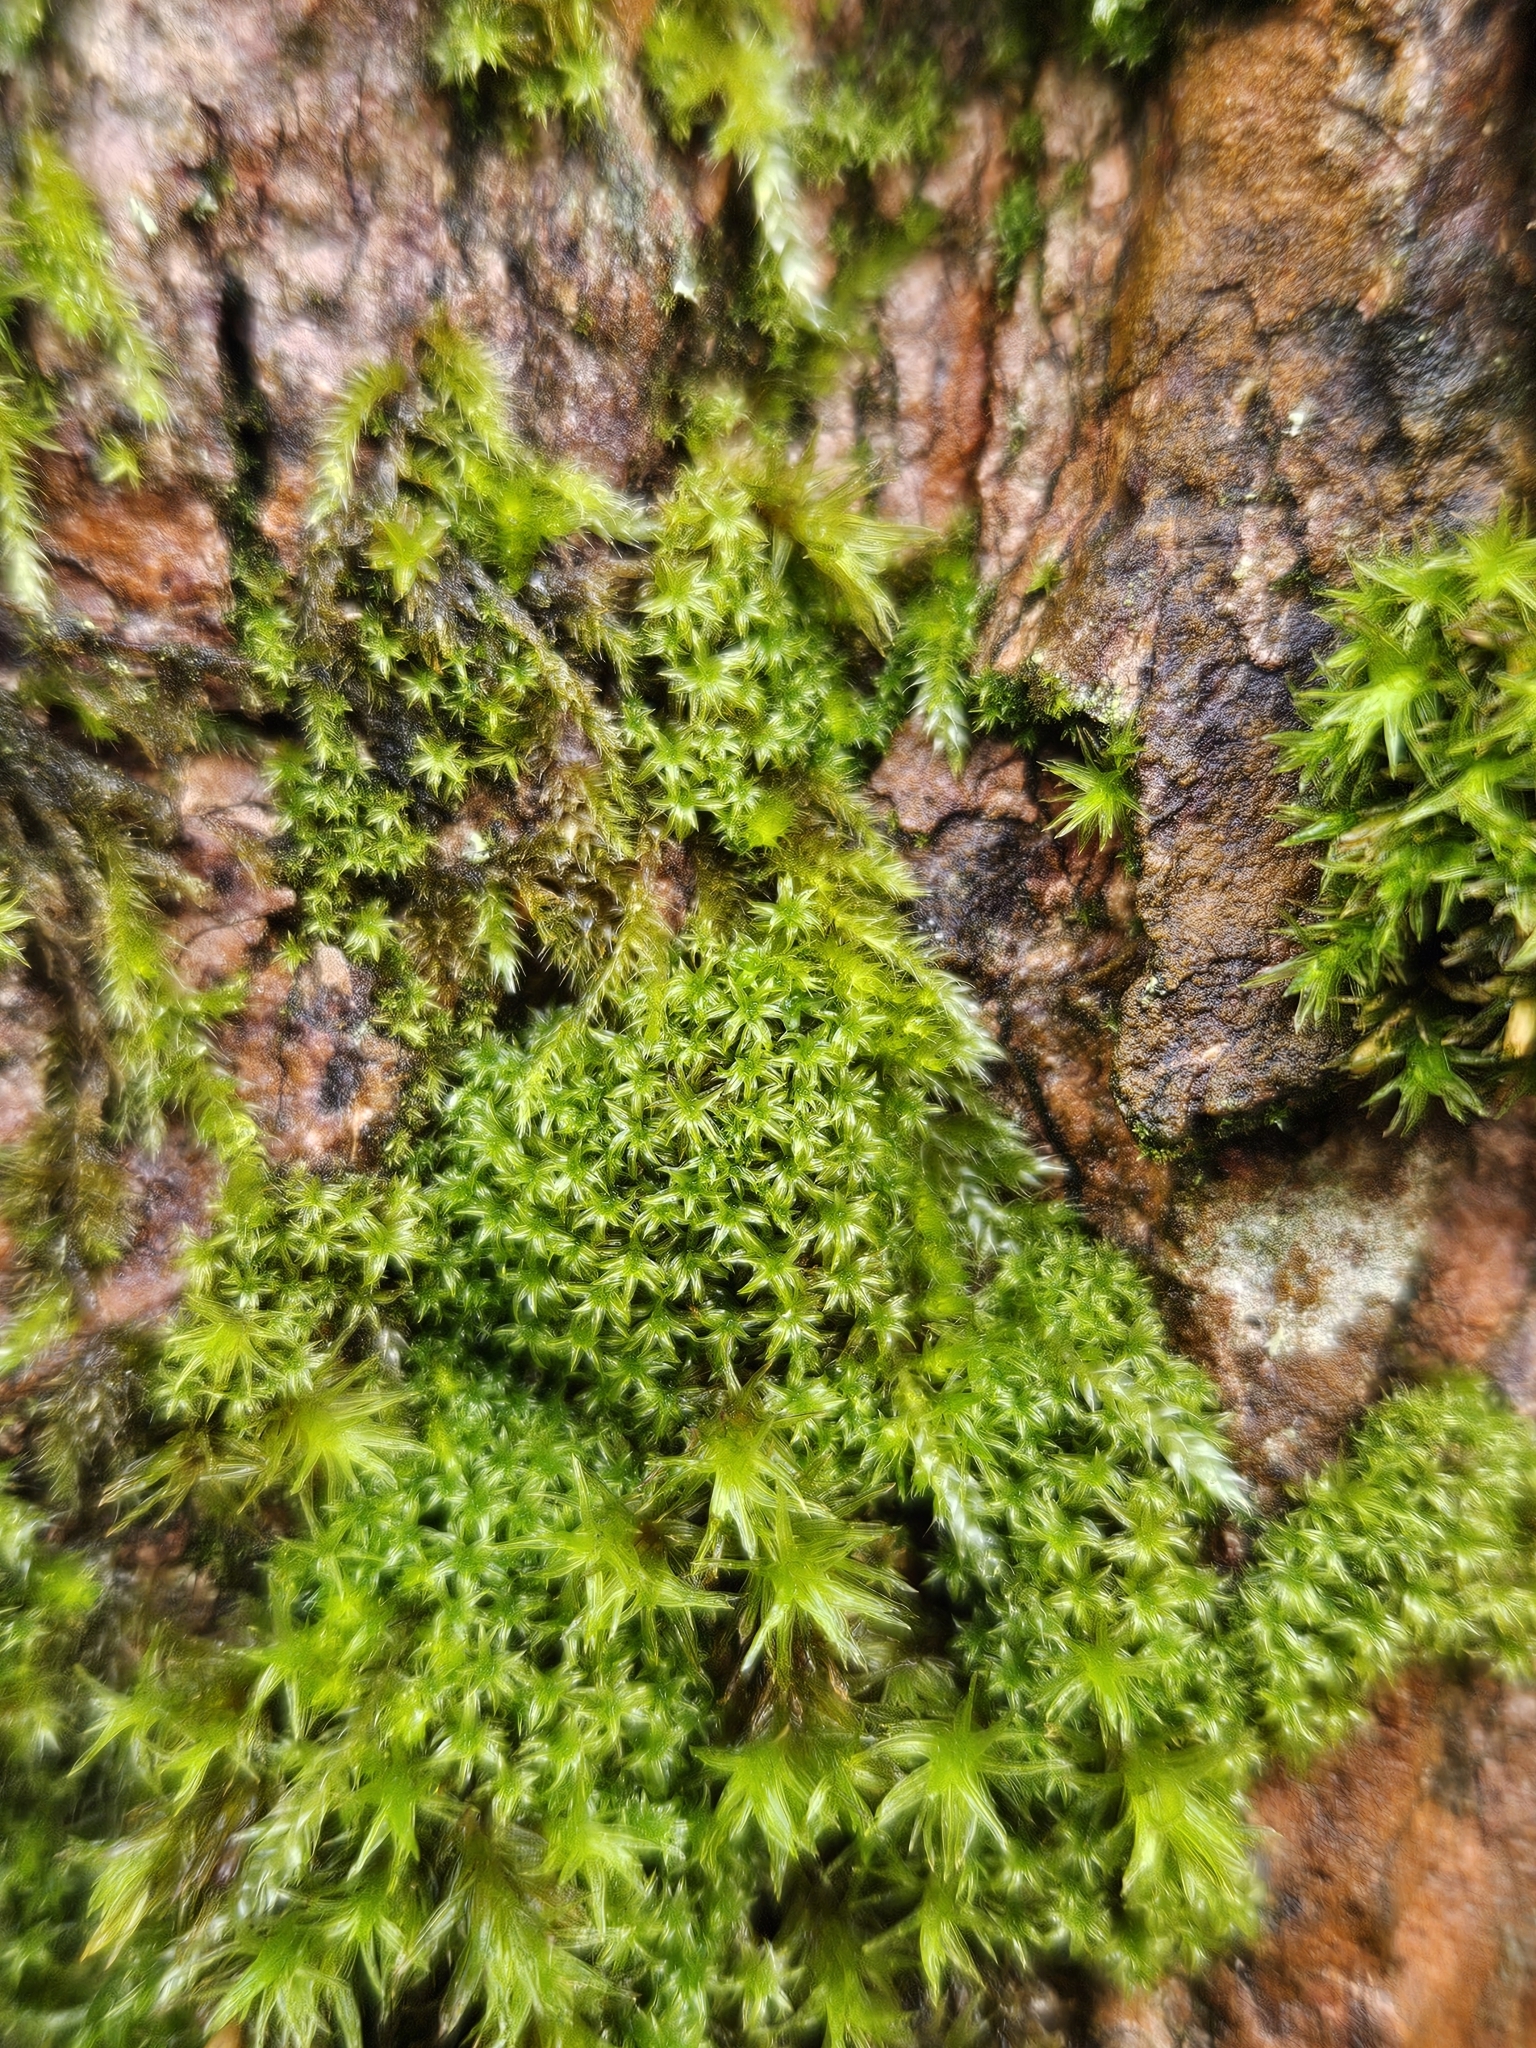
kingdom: Plantae
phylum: Bryophyta
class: Bryopsida
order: Orthotrichales
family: Orthotrichaceae
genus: Zygodon
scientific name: Zygodon viridissimus
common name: Green yoke moss
